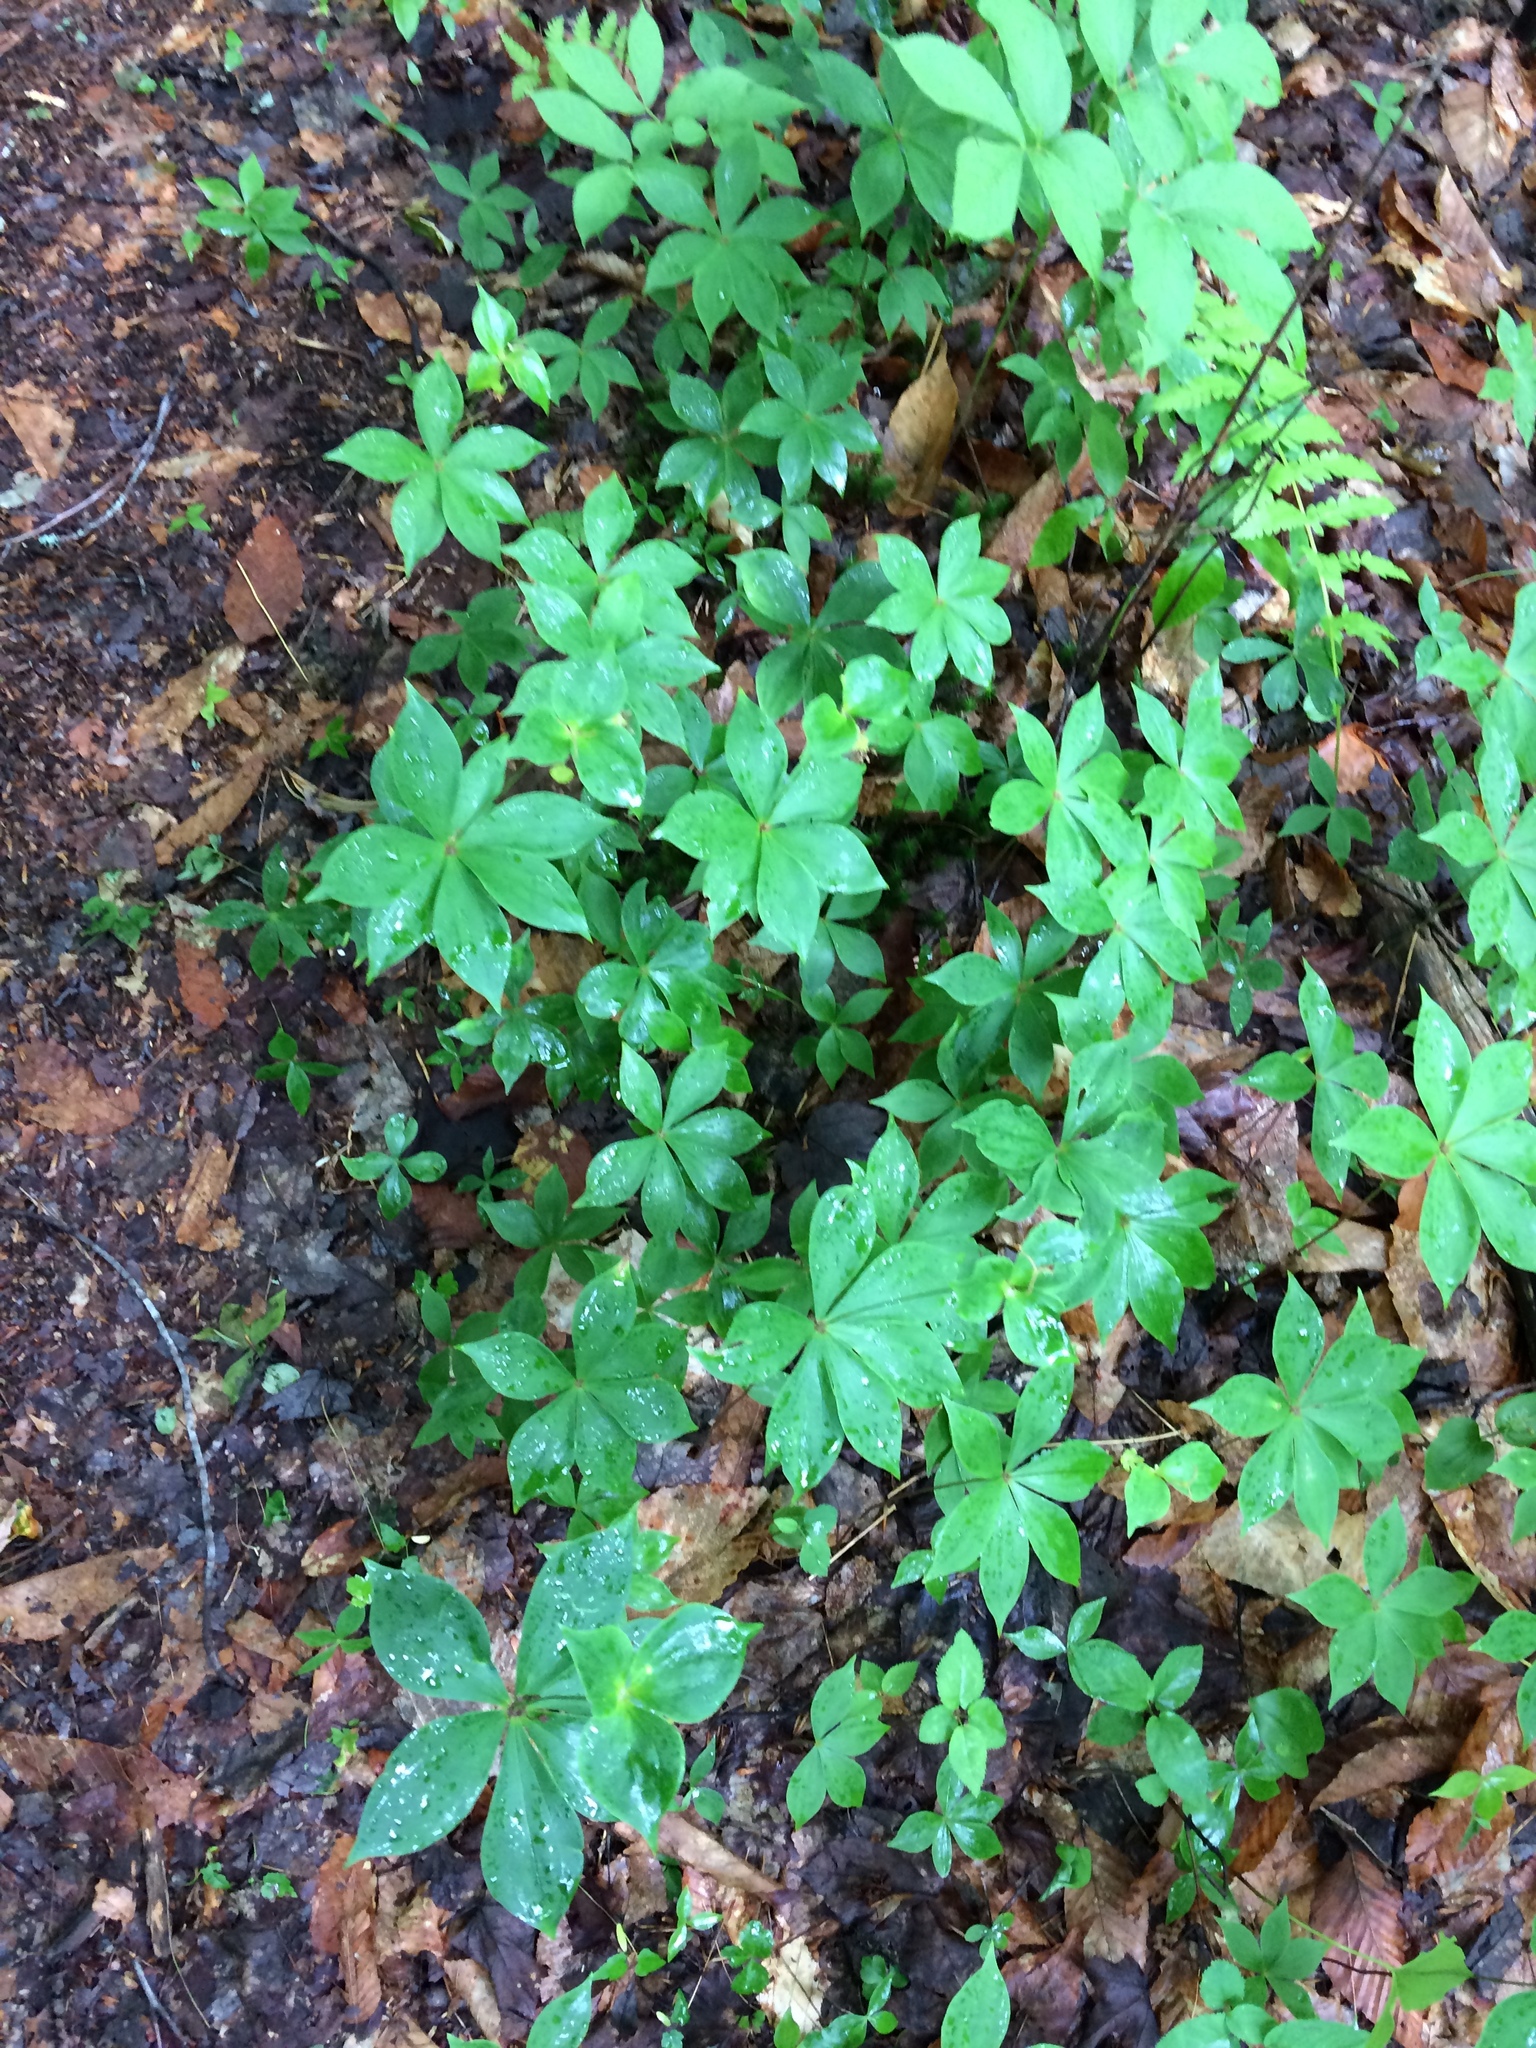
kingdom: Plantae
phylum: Tracheophyta
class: Liliopsida
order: Liliales
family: Liliaceae
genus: Medeola
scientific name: Medeola virginiana
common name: Indian cucumber-root
